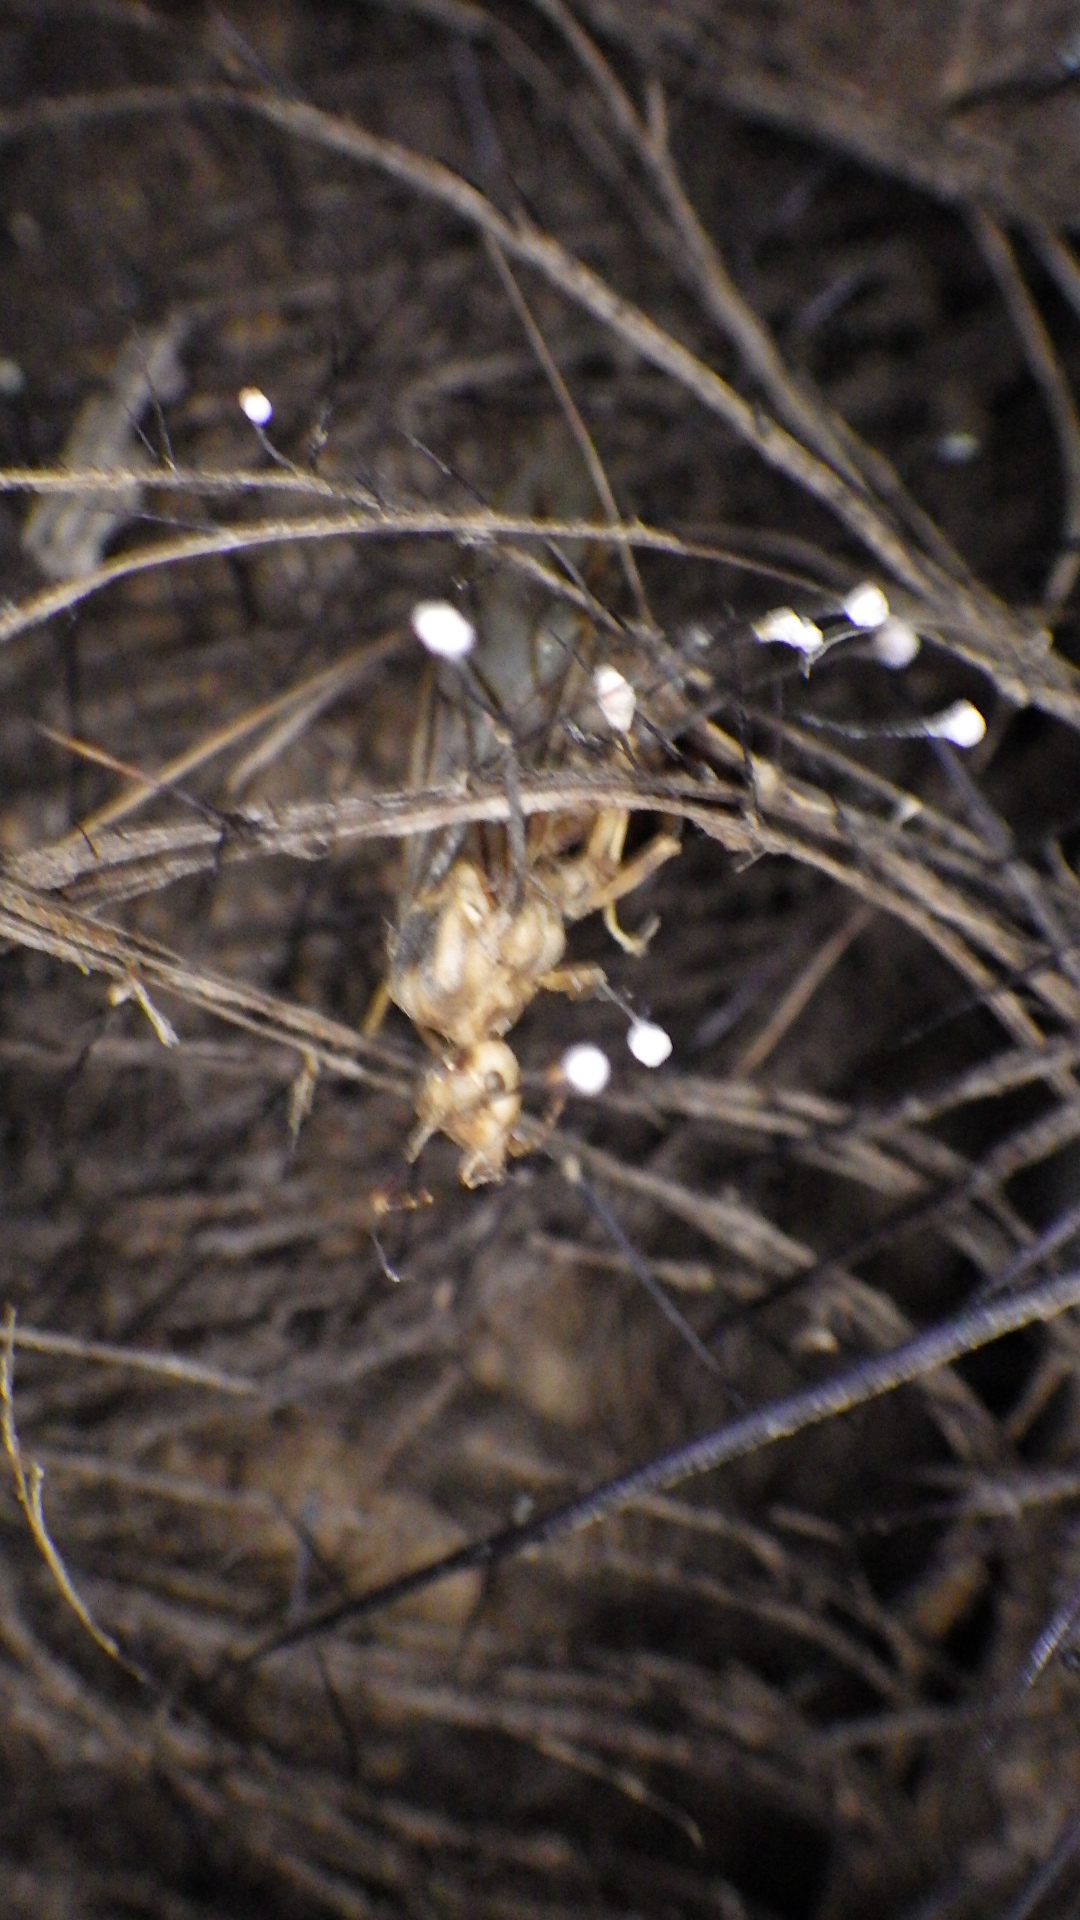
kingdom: Animalia
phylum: Arthropoda
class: Insecta
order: Hymenoptera
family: Formicidae
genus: Oecophylla
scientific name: Oecophylla smaragdina
